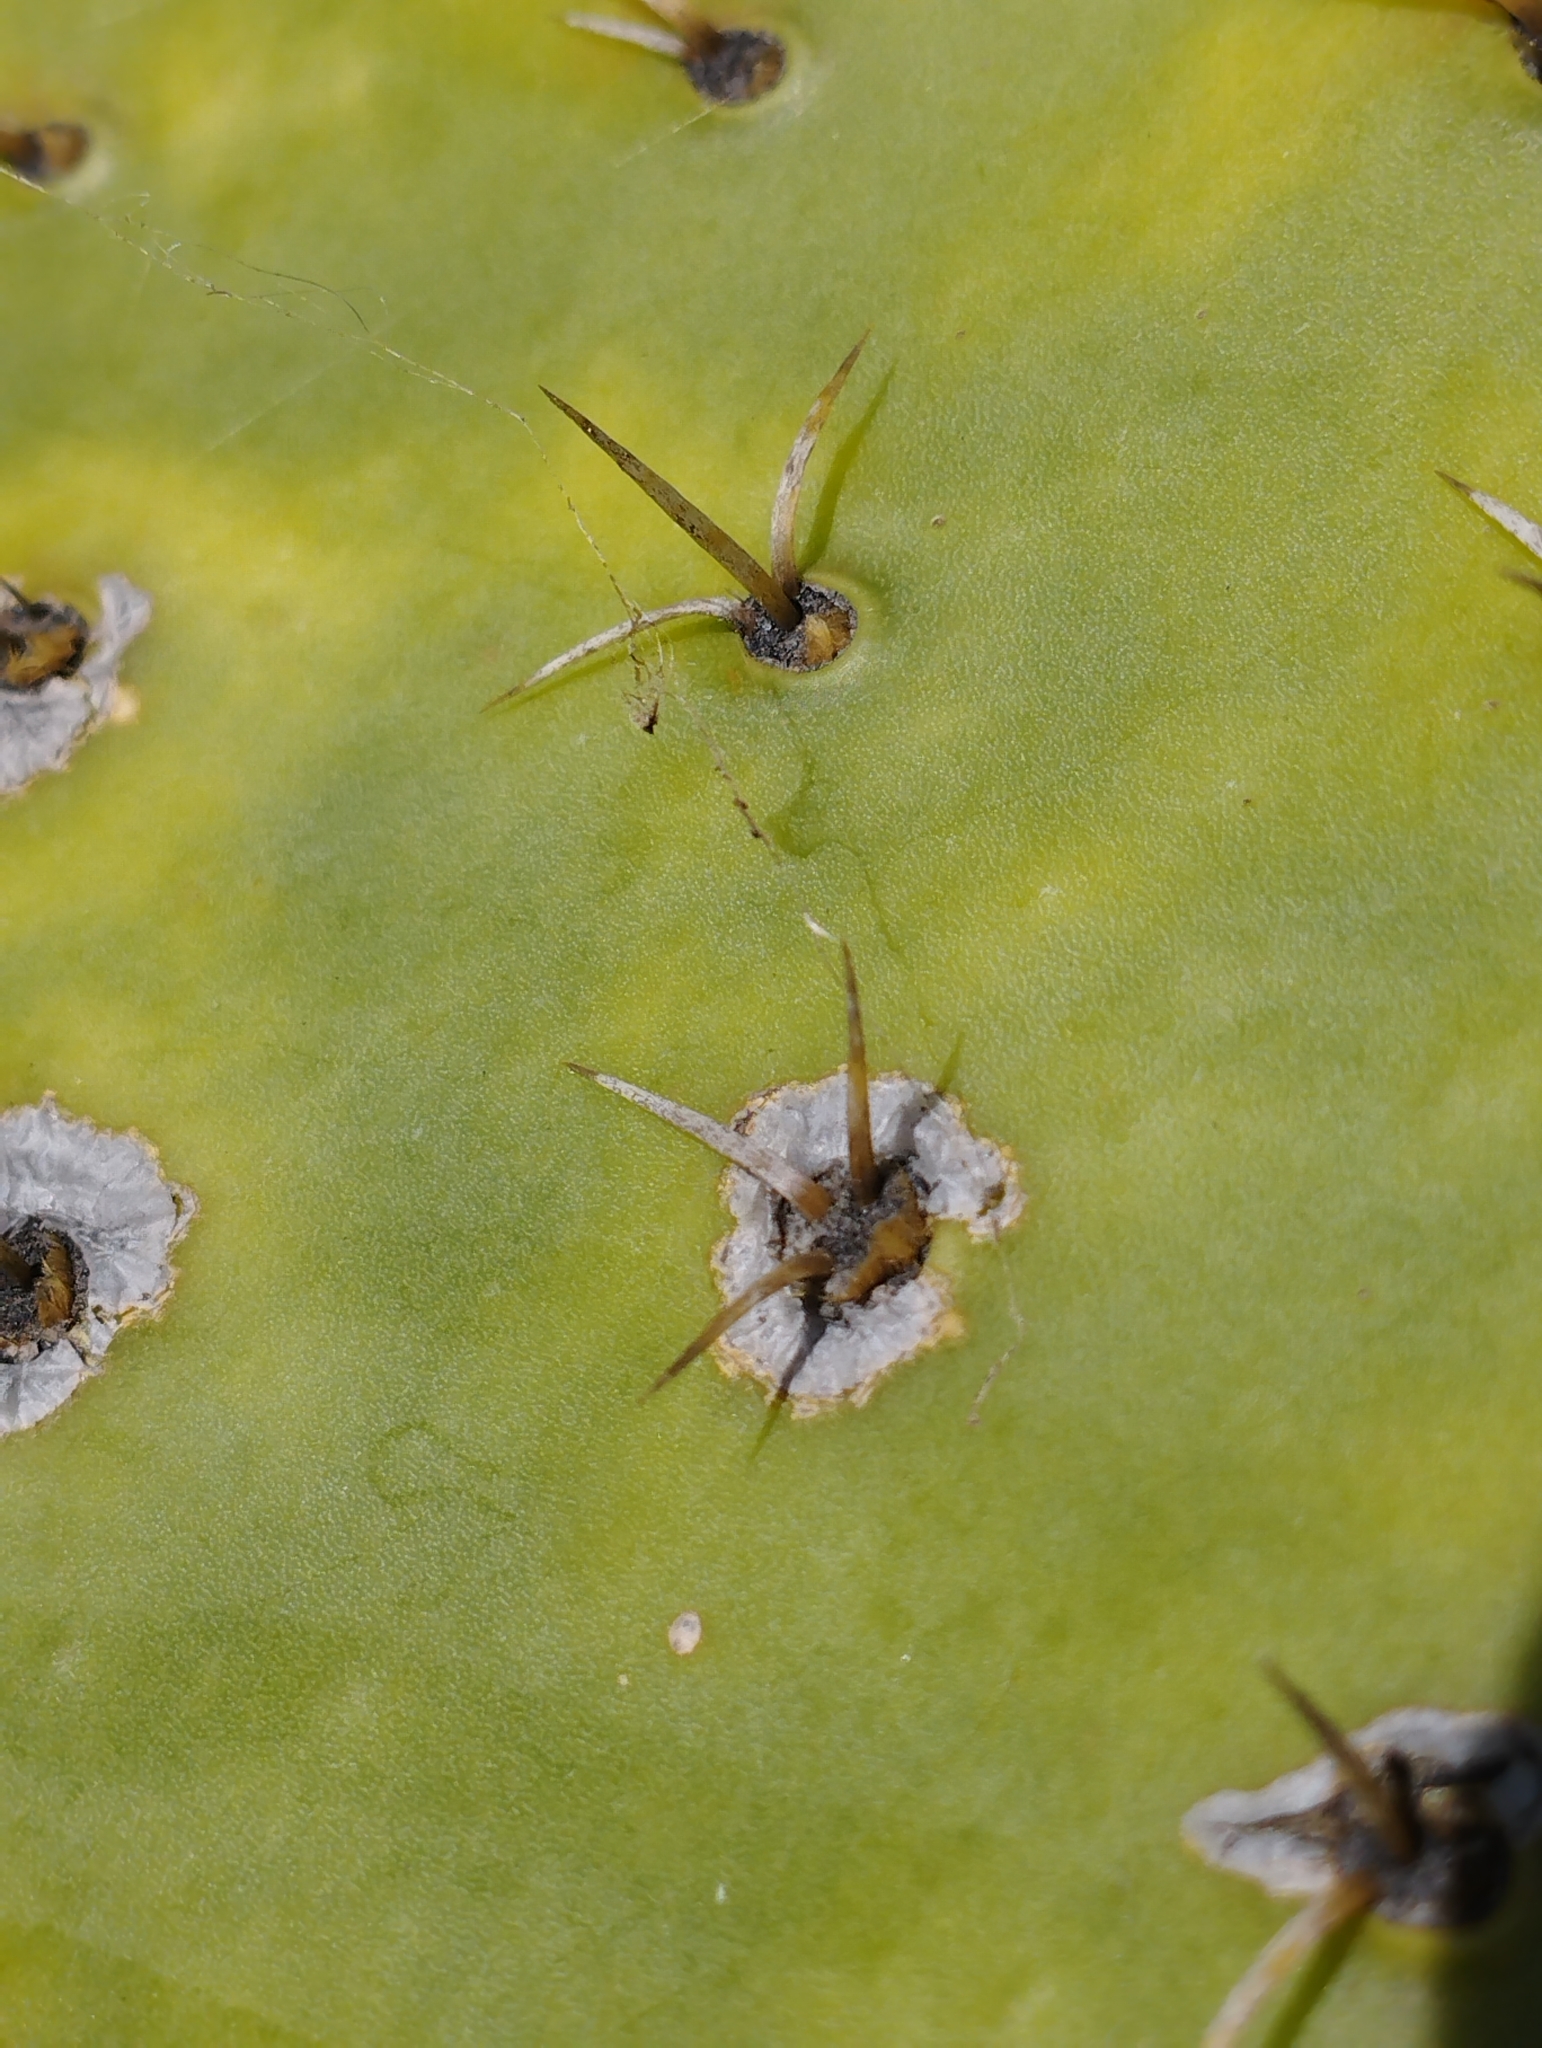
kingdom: Plantae
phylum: Tracheophyta
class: Magnoliopsida
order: Caryophyllales
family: Cactaceae
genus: Opuntia
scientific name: Opuntia robusta
